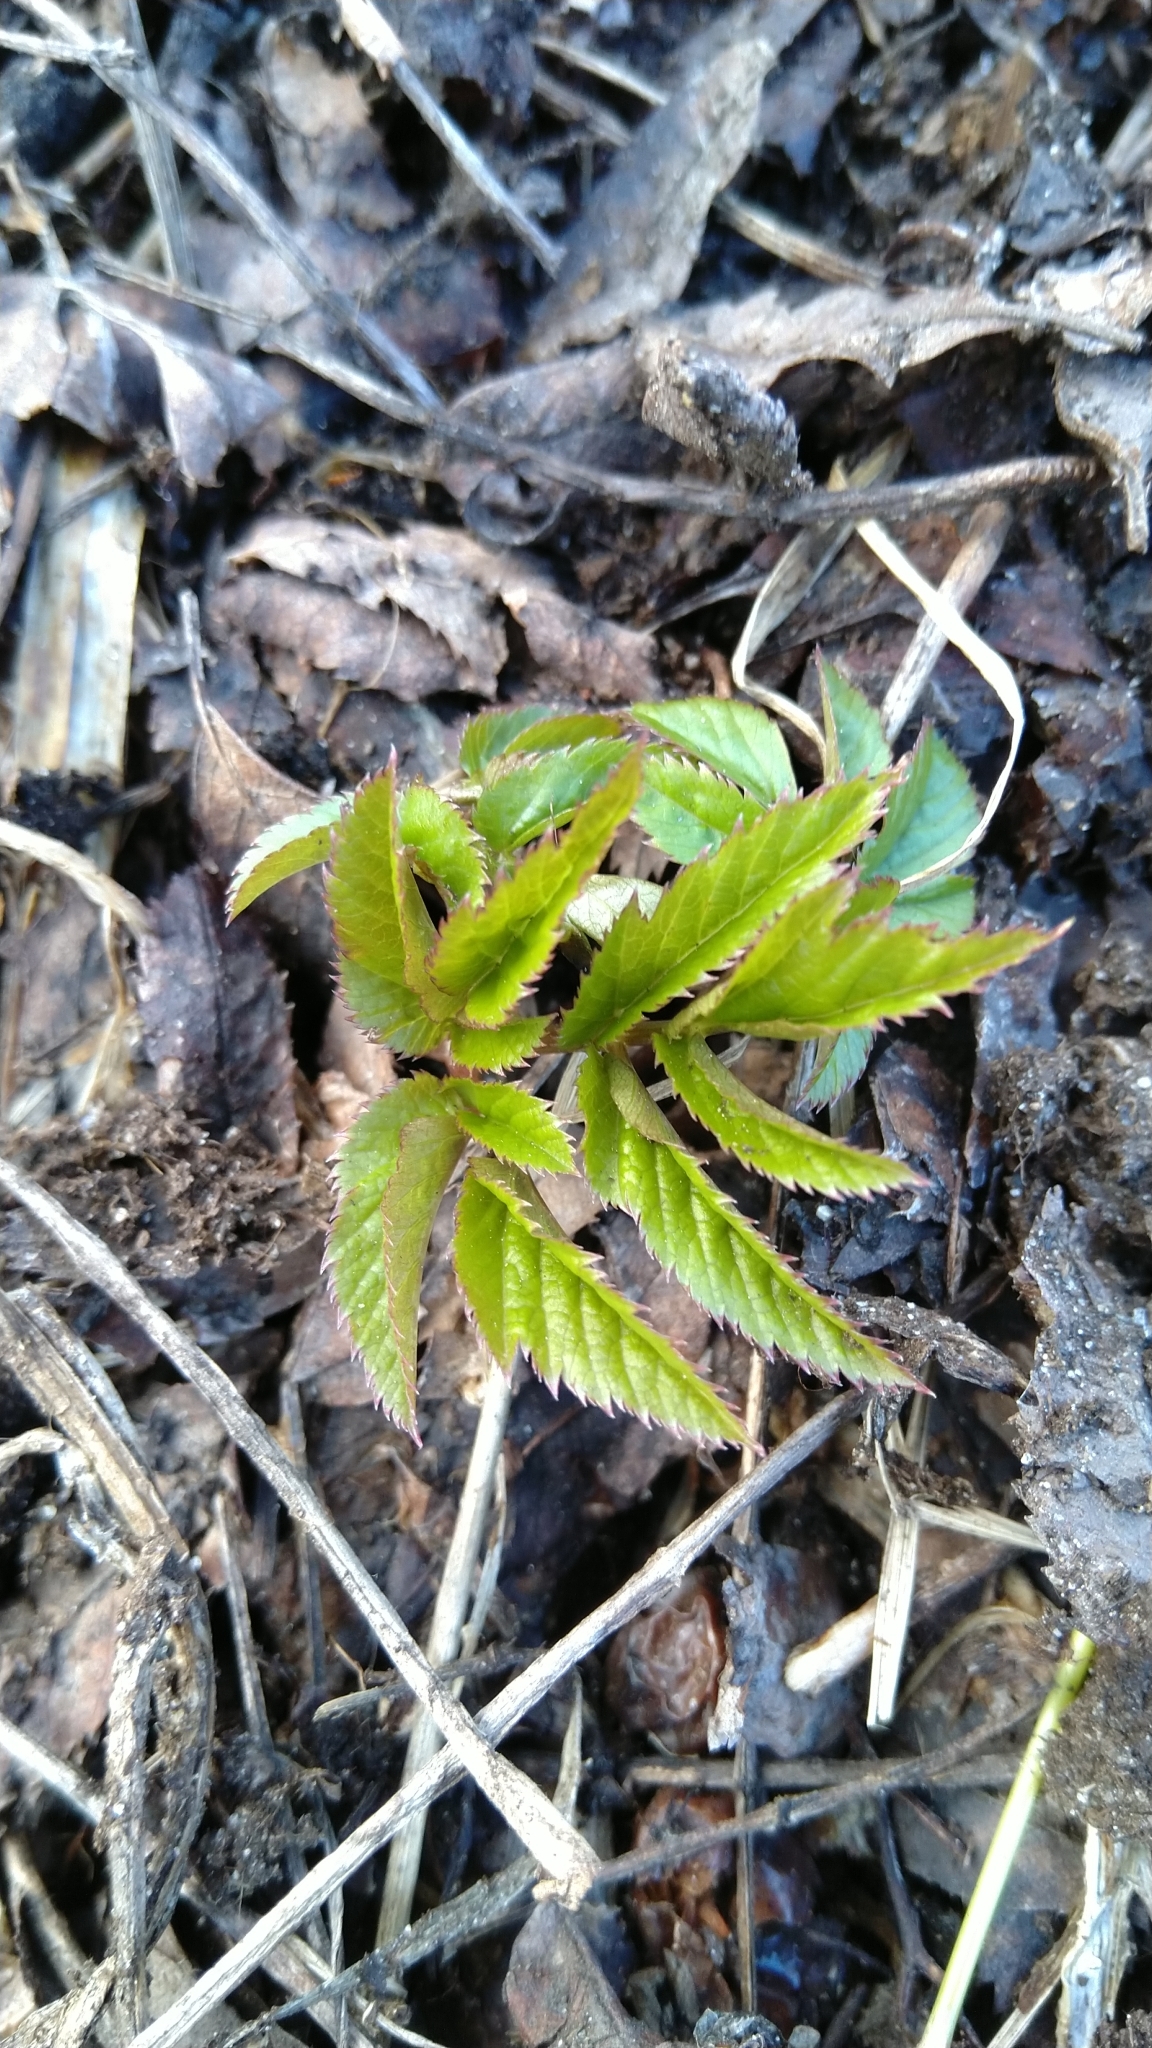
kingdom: Plantae
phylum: Tracheophyta
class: Magnoliopsida
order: Apiales
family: Apiaceae
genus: Aegopodium
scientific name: Aegopodium podagraria
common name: Ground-elder
